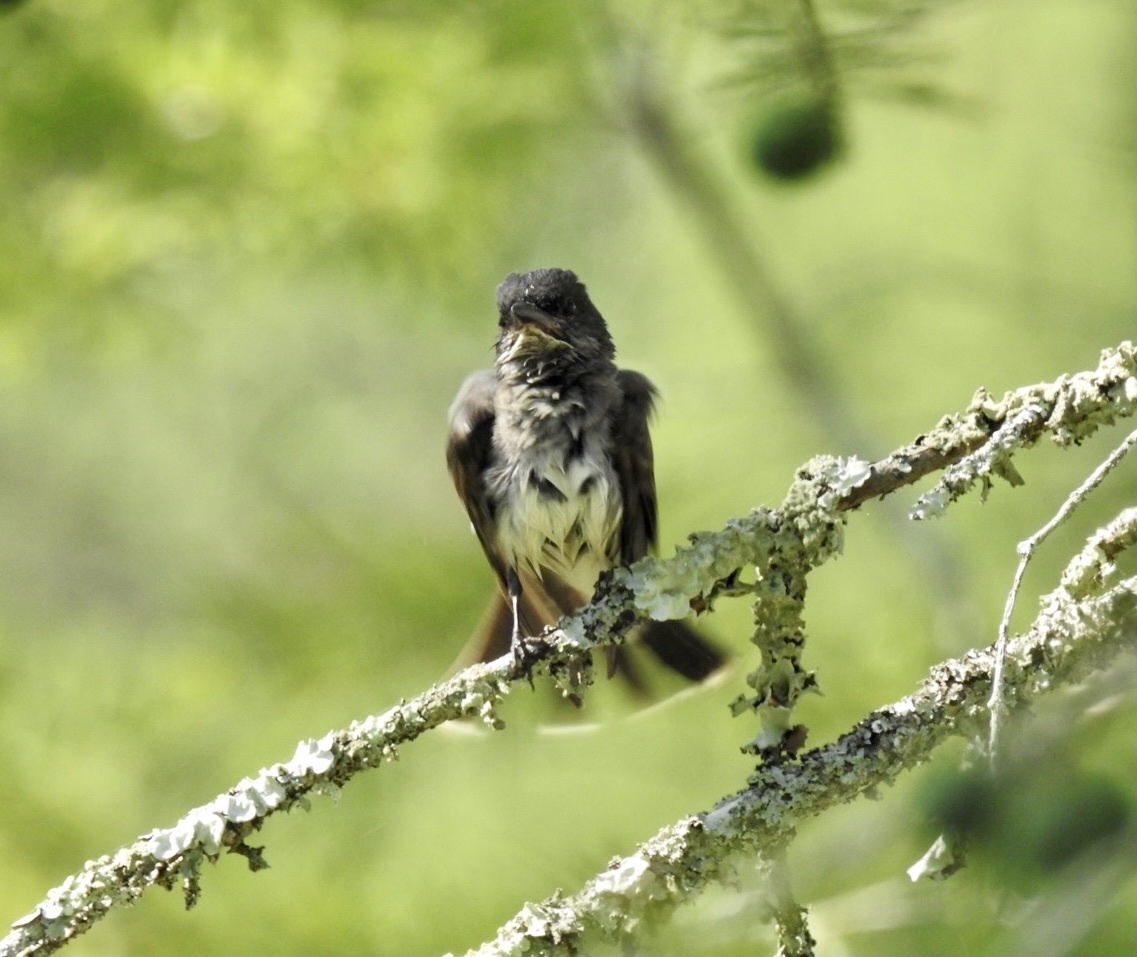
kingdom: Animalia
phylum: Chordata
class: Aves
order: Passeriformes
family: Tyrannidae
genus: Tyrannus
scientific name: Tyrannus tyrannus
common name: Eastern kingbird
